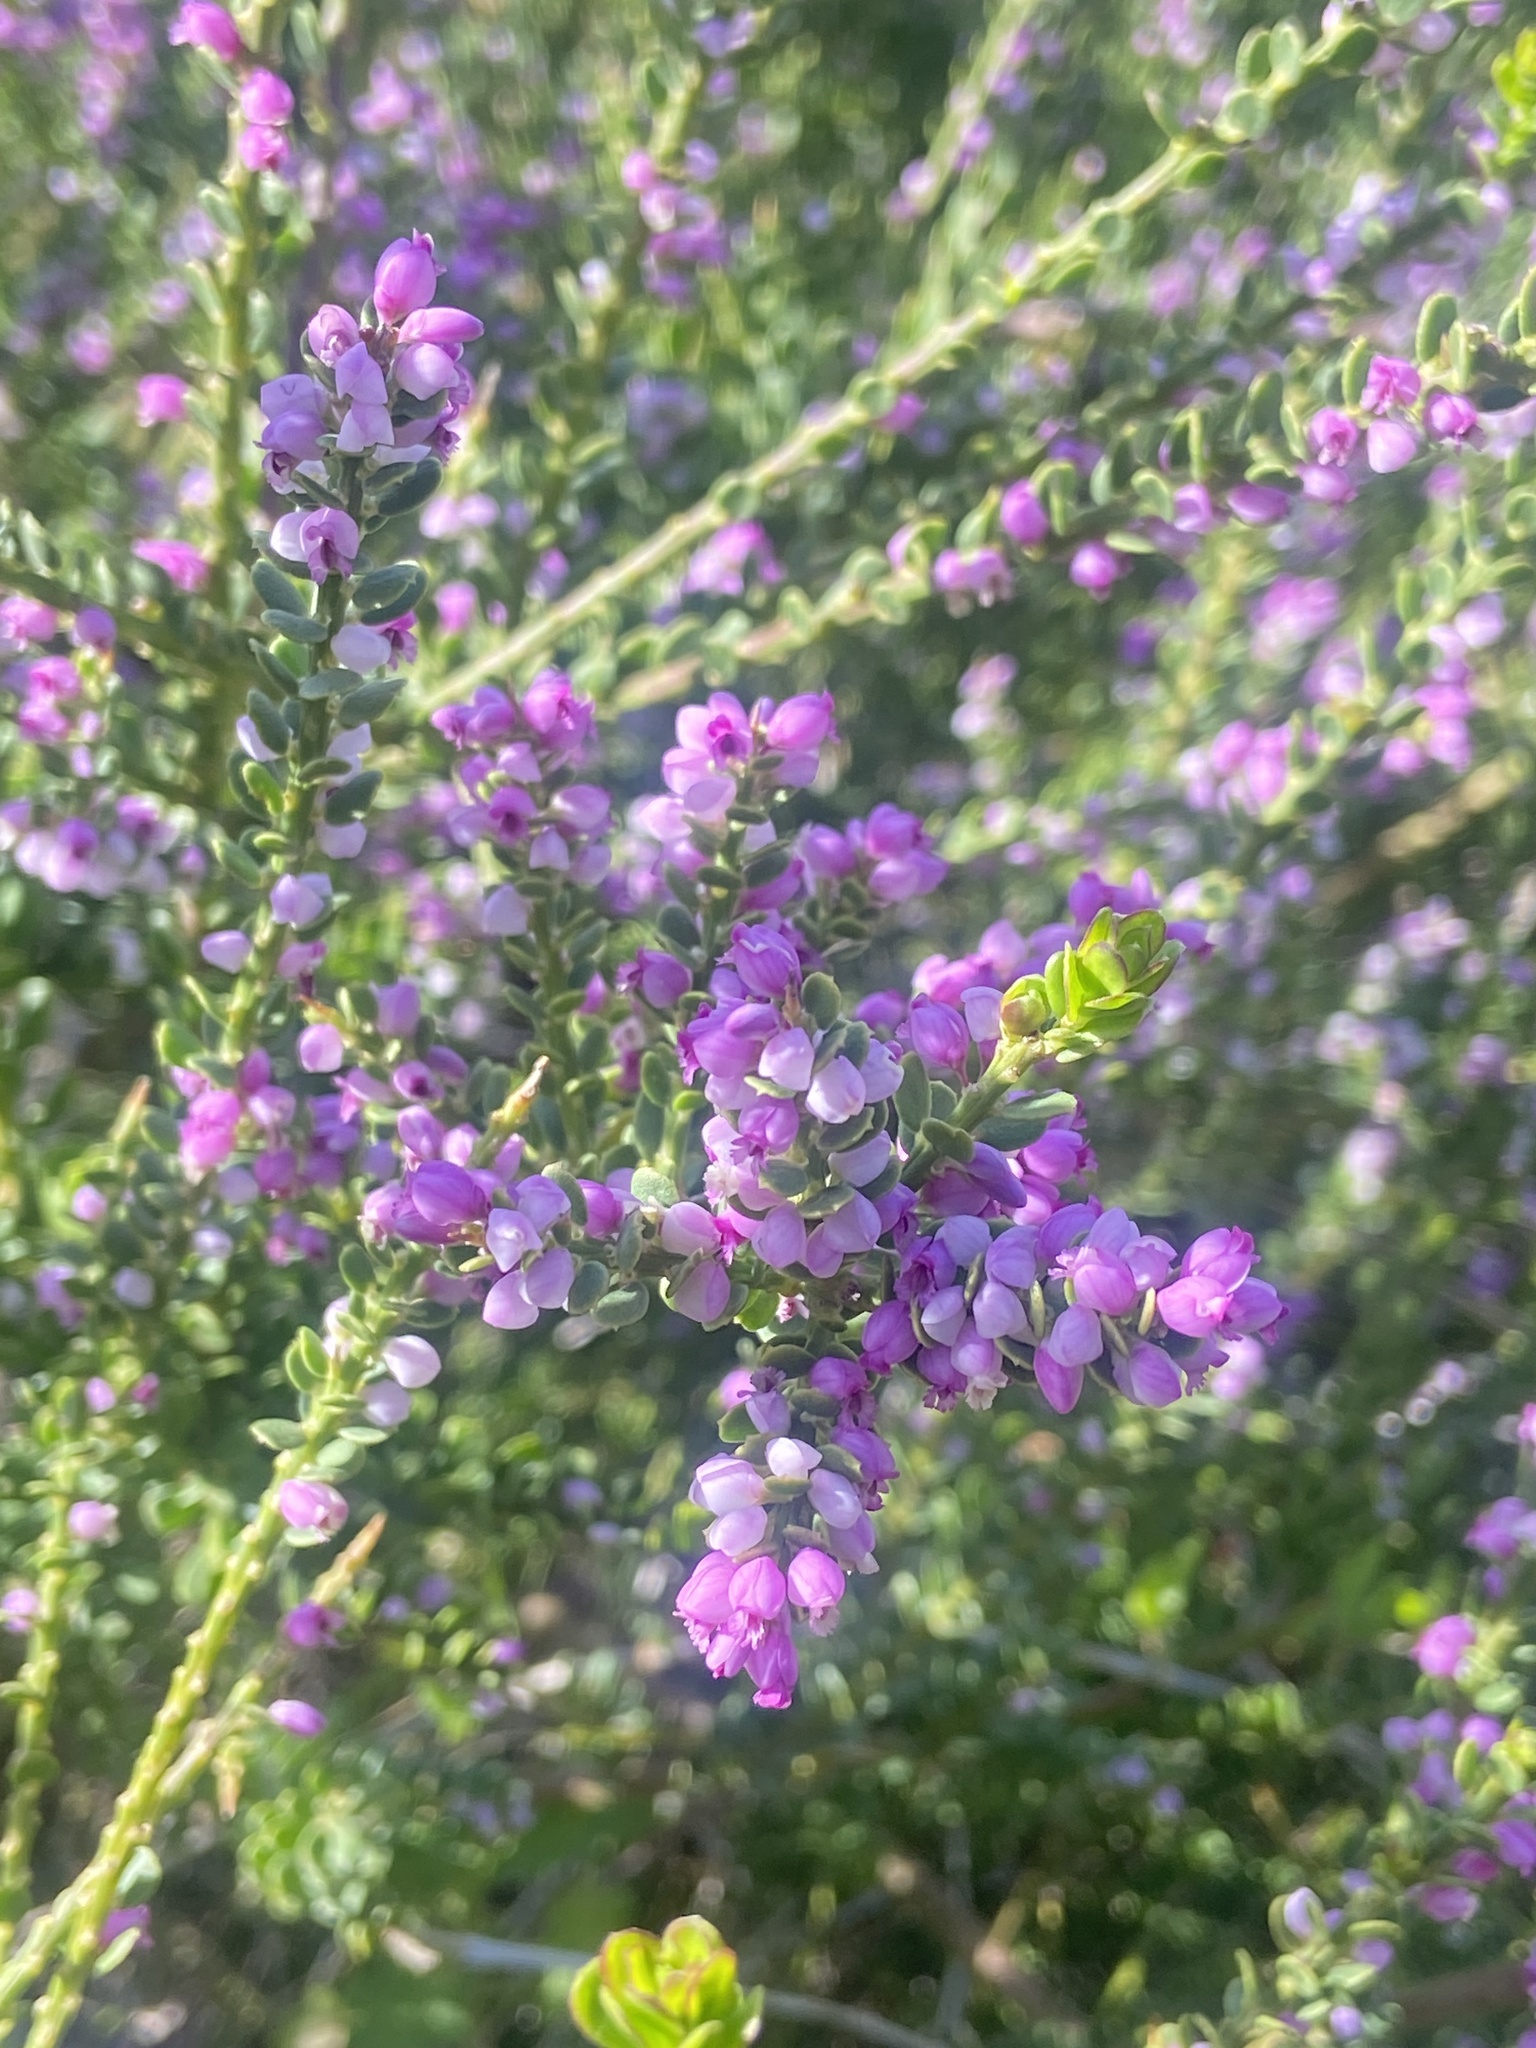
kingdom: Plantae
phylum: Tracheophyta
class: Magnoliopsida
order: Fabales
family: Polygalaceae
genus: Muraltia
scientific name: Muraltia spinosa
